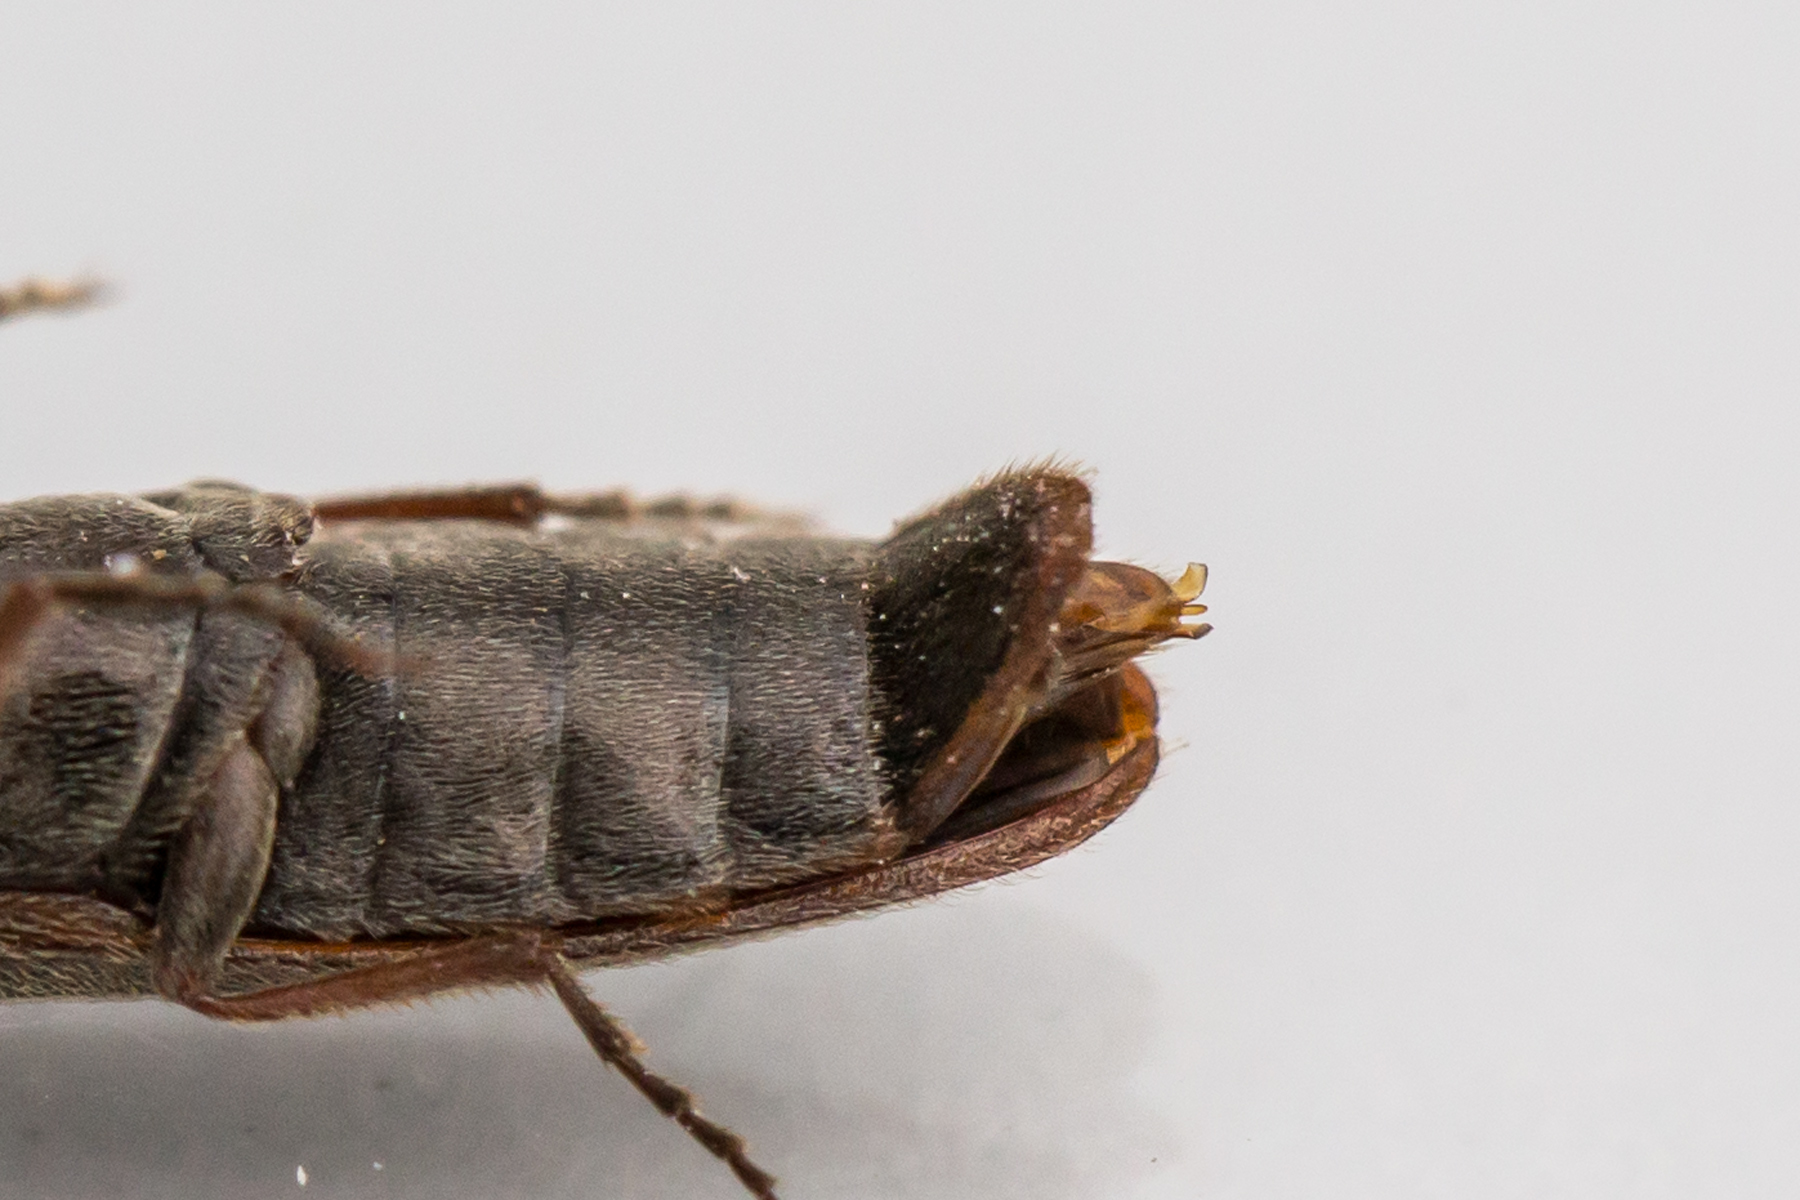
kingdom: Animalia
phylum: Arthropoda
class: Insecta
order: Coleoptera
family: Elateridae
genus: Sylvanelater
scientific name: Sylvanelater cylindriformis
